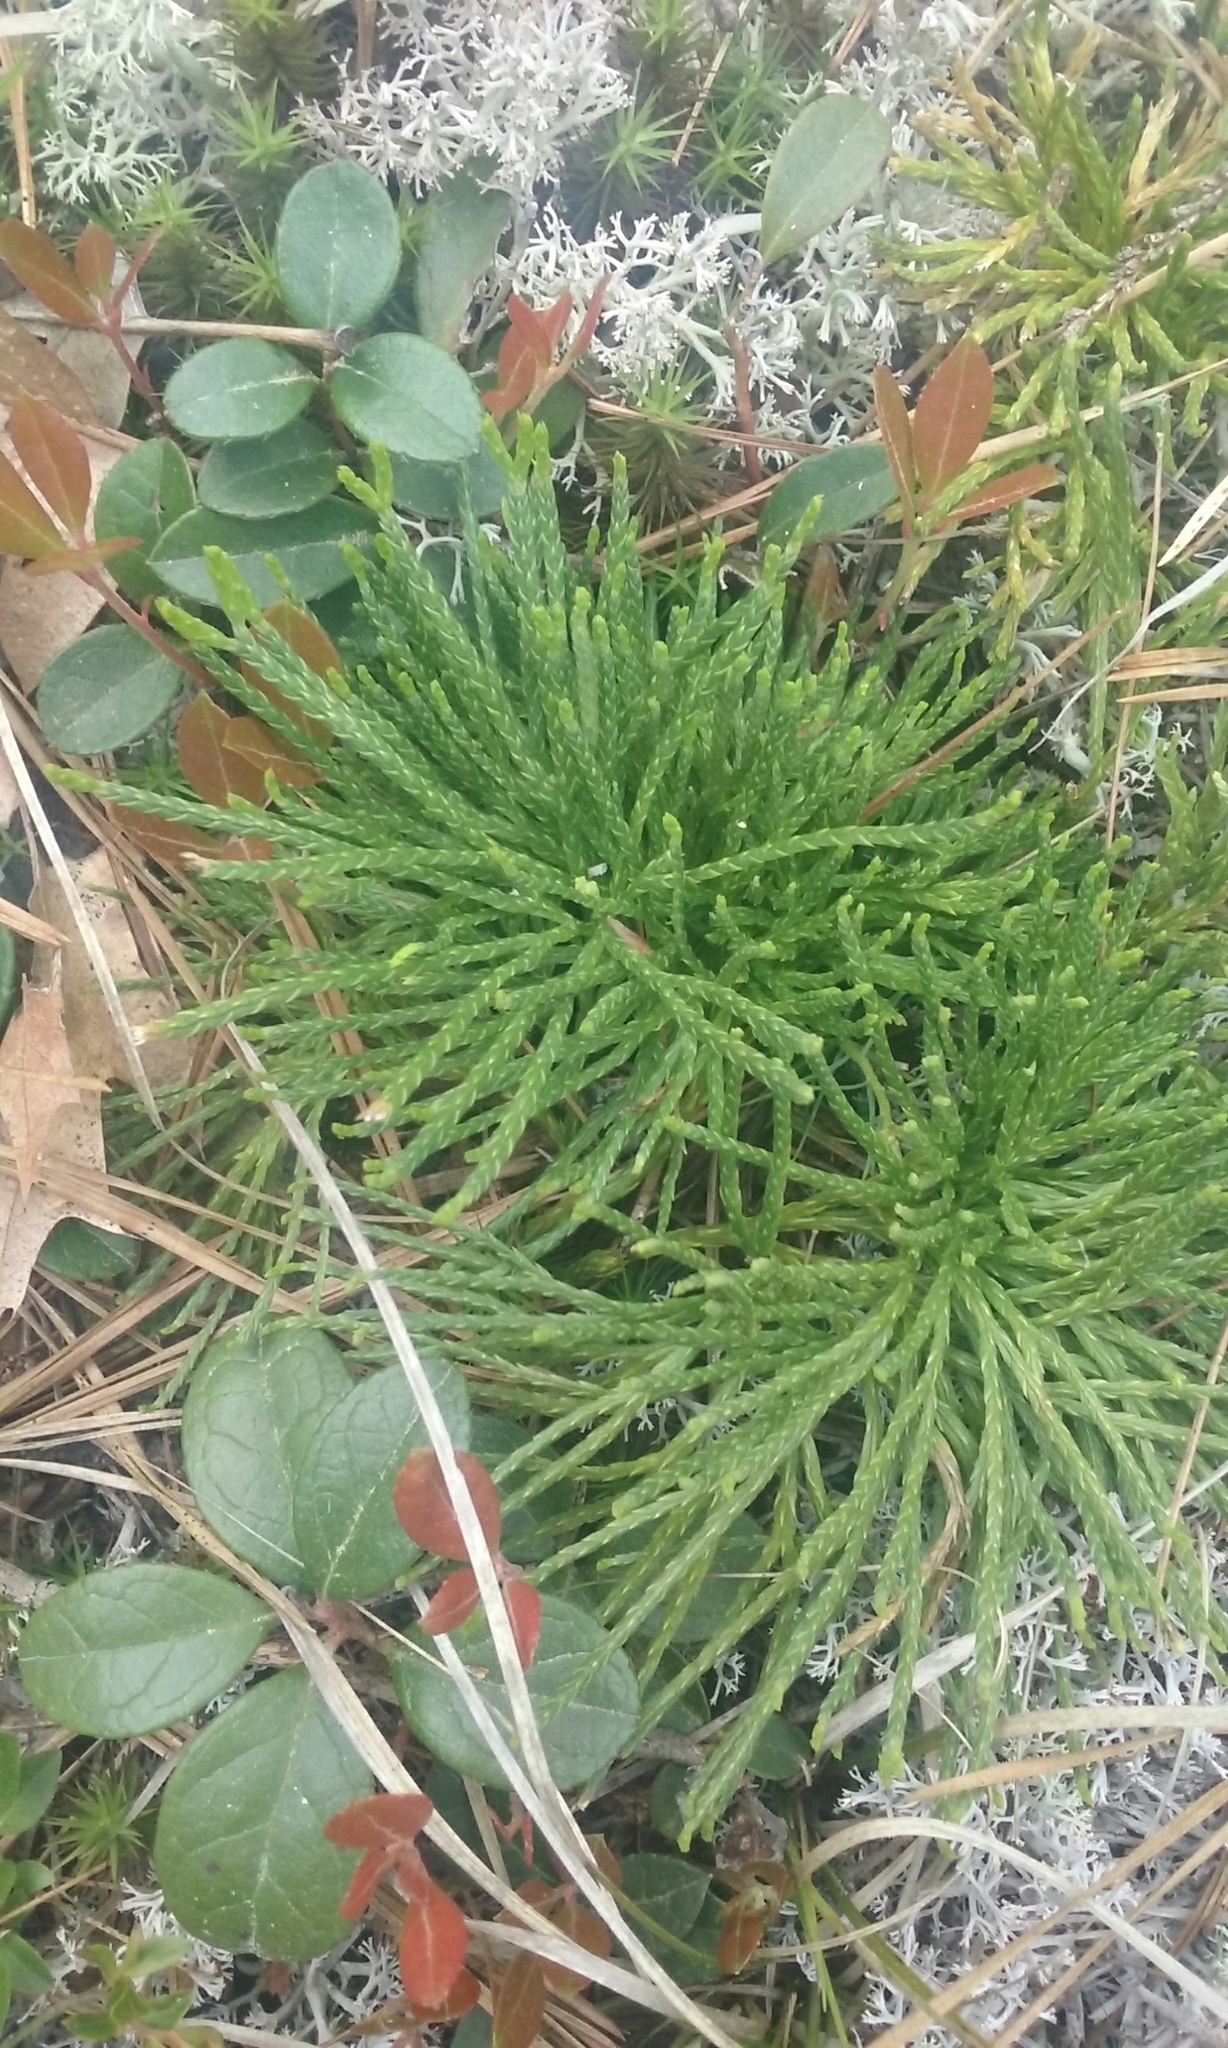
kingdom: Plantae
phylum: Tracheophyta
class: Lycopodiopsida
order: Lycopodiales
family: Lycopodiaceae
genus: Diphasiastrum
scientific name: Diphasiastrum tristachyum
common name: Blue ground-cedar
